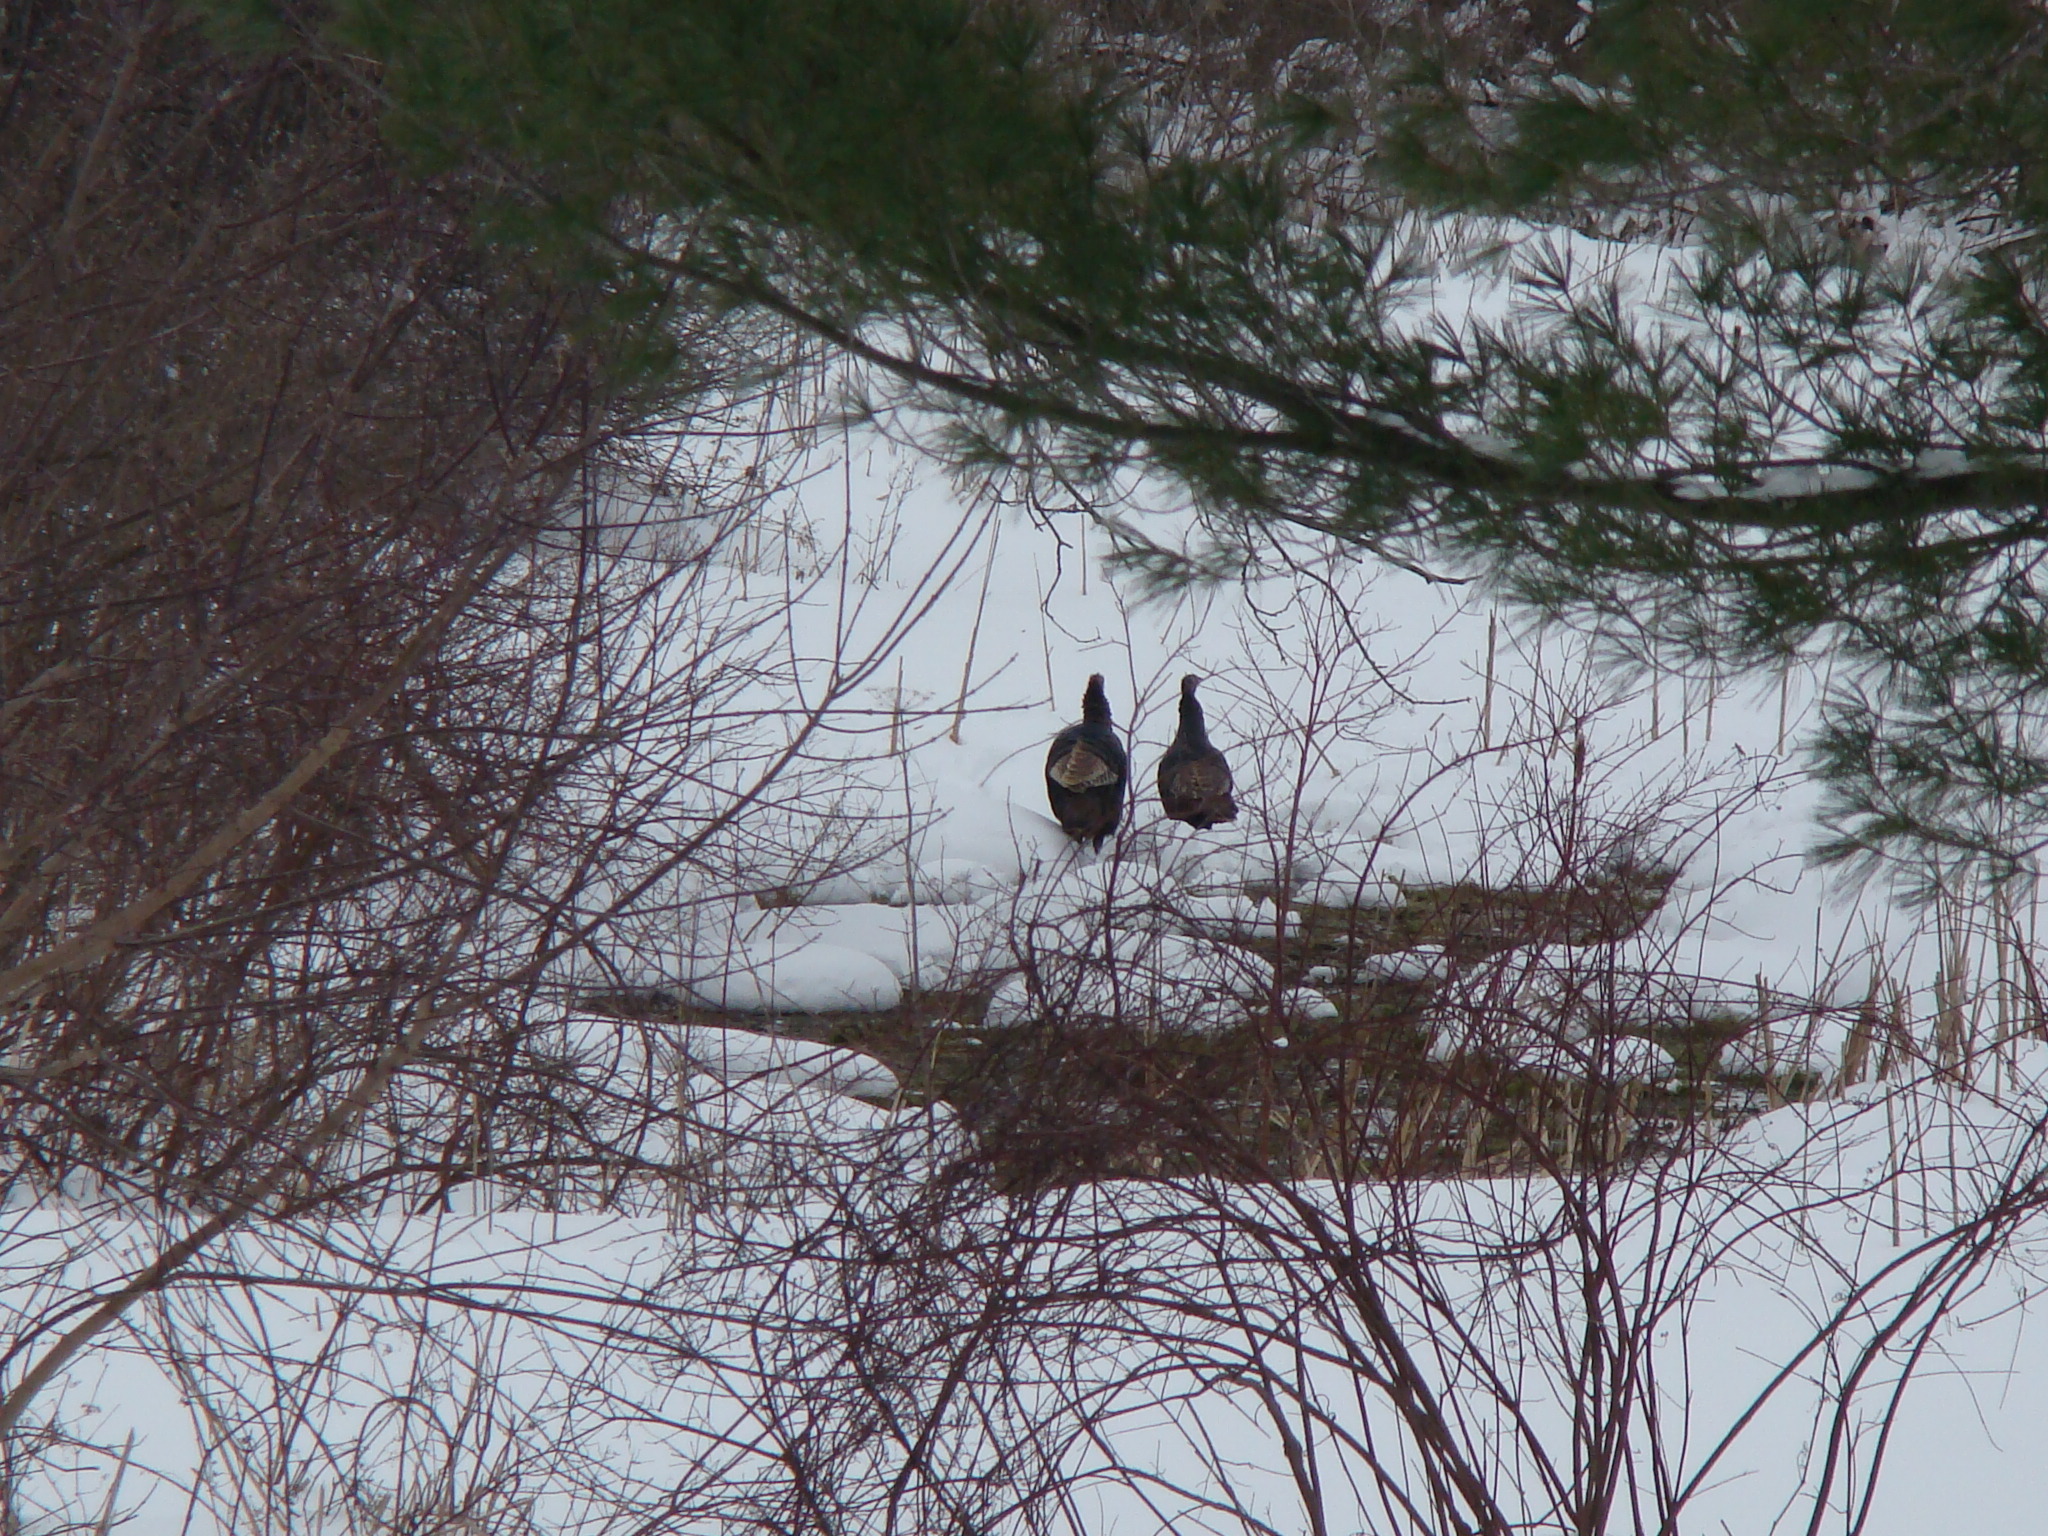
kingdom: Animalia
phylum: Chordata
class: Aves
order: Galliformes
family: Phasianidae
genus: Meleagris
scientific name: Meleagris gallopavo
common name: Wild turkey
